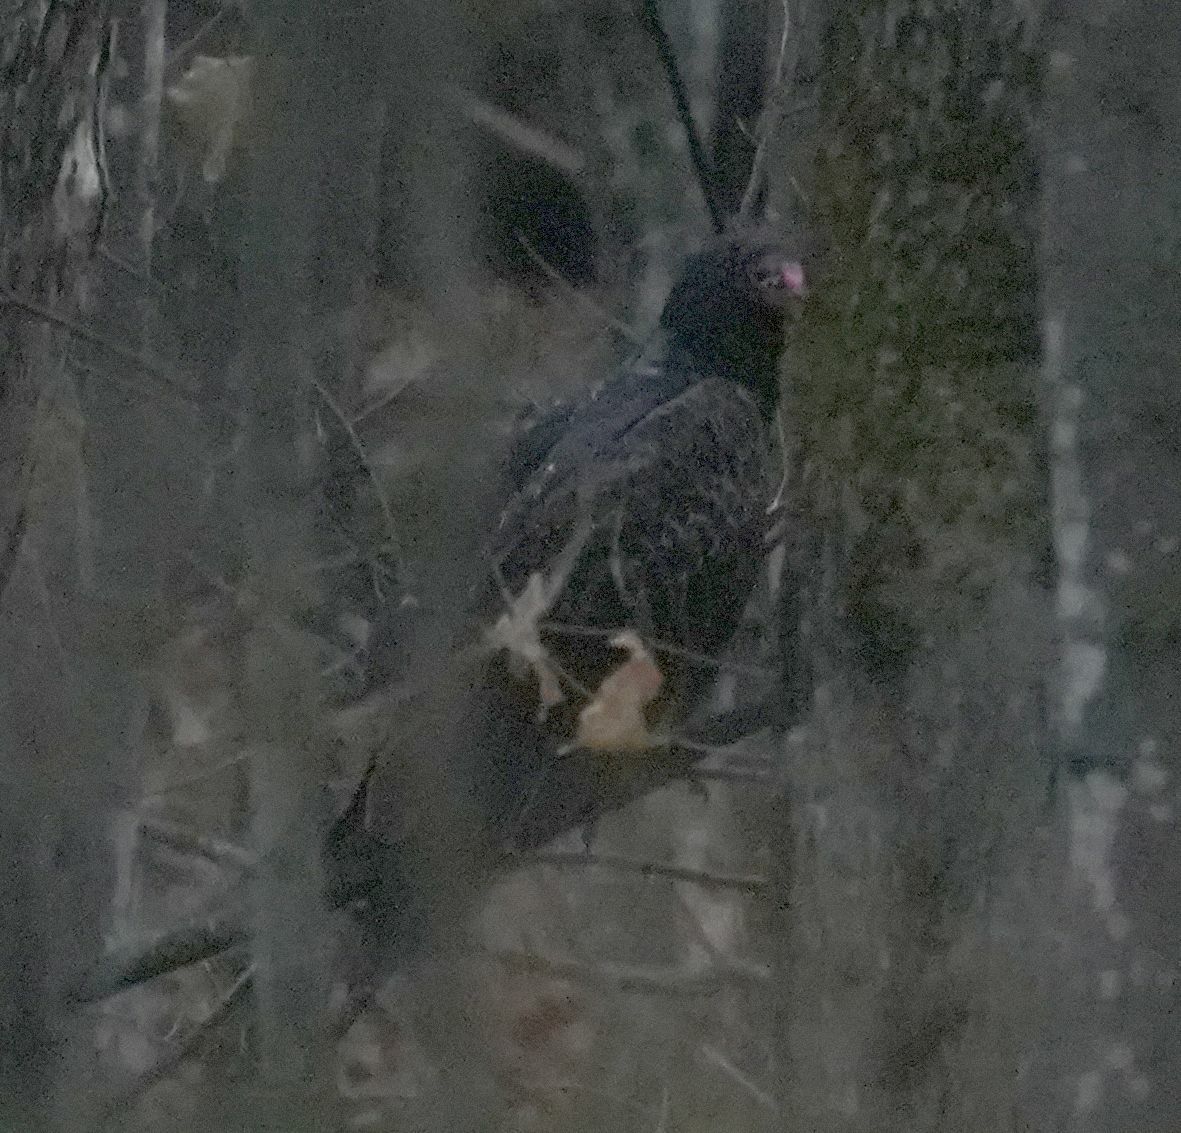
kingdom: Animalia
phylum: Chordata
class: Aves
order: Accipitriformes
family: Cathartidae
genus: Cathartes
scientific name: Cathartes aura
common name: Turkey vulture
